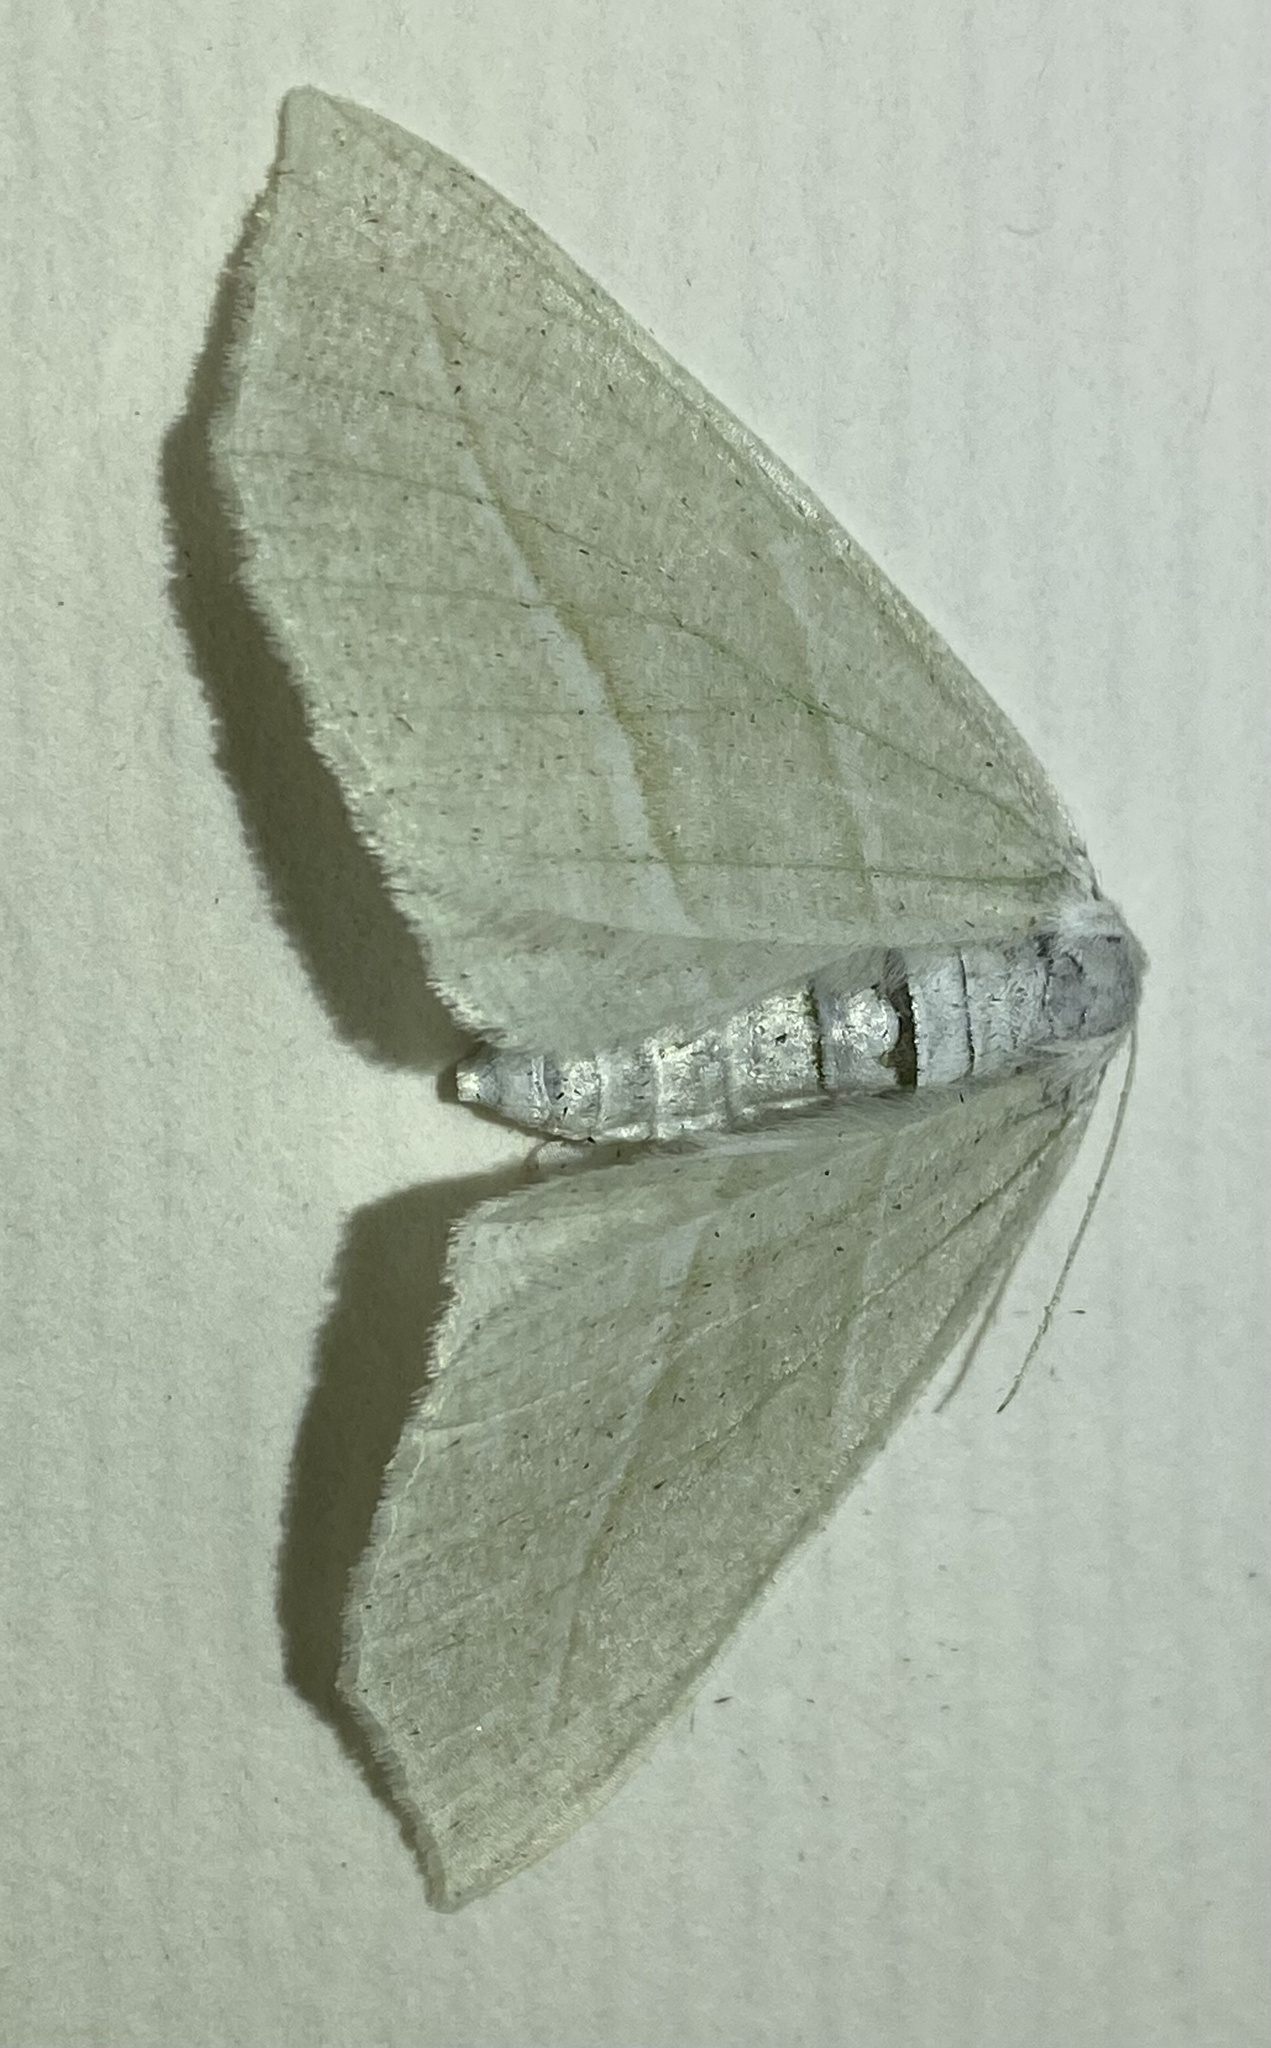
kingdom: Animalia
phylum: Arthropoda
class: Insecta
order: Lepidoptera
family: Geometridae
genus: Campaea
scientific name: Campaea perlata
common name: Fringed looper
